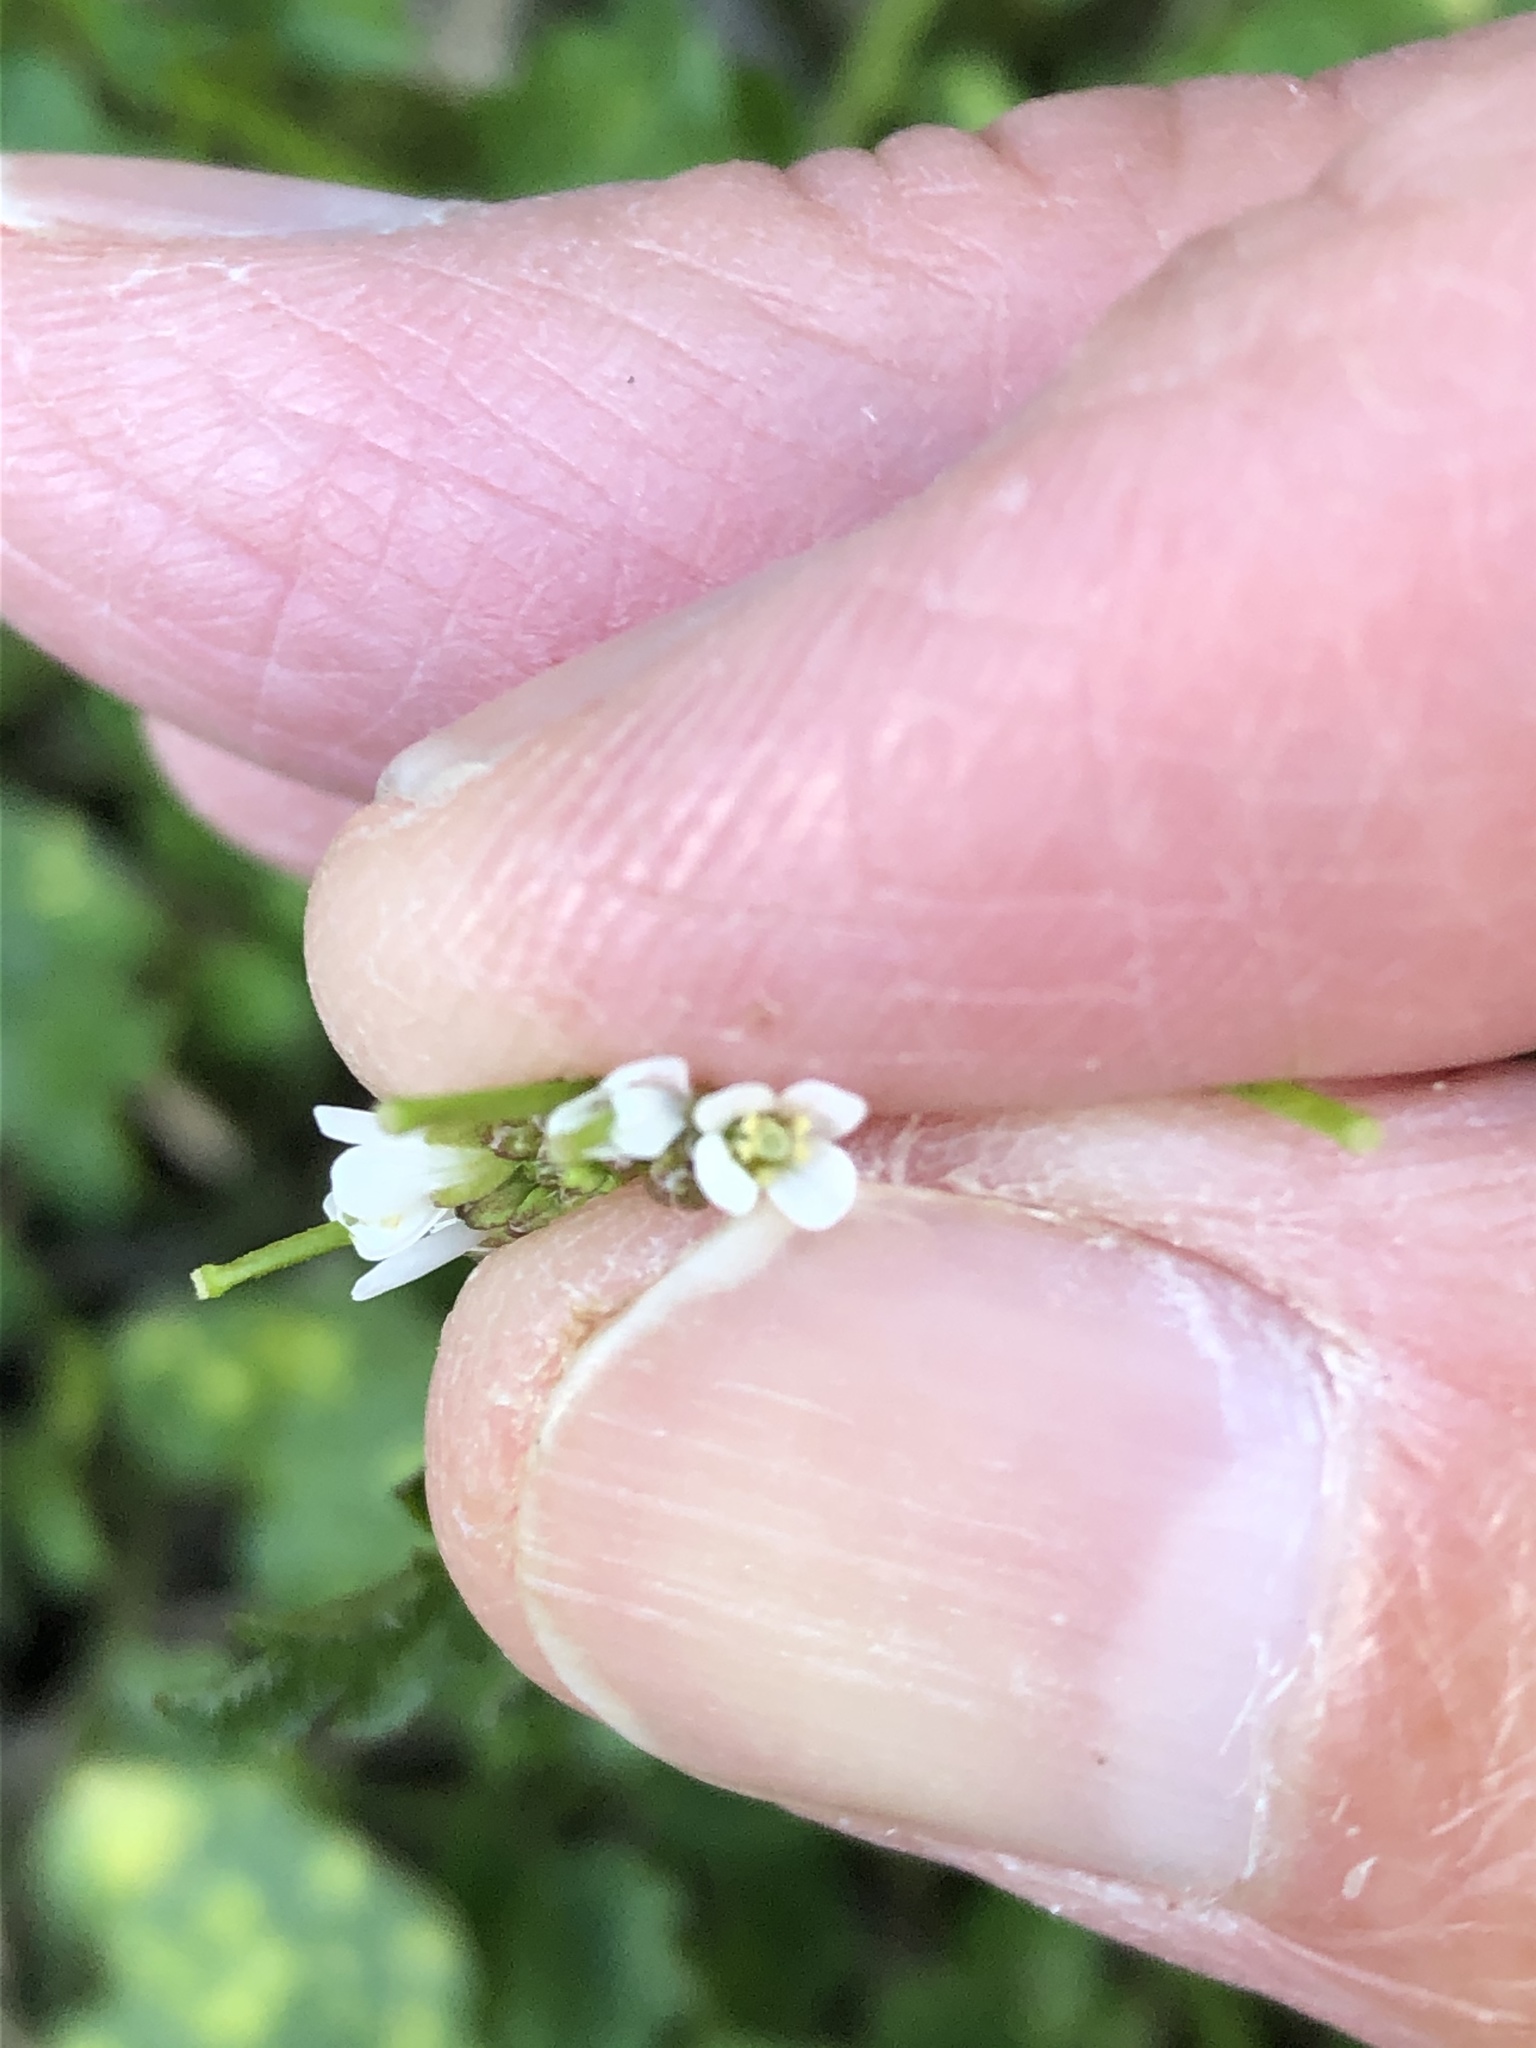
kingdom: Plantae
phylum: Tracheophyta
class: Magnoliopsida
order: Brassicales
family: Brassicaceae
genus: Cardamine
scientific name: Cardamine flexuosa
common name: Woodland bittercress
